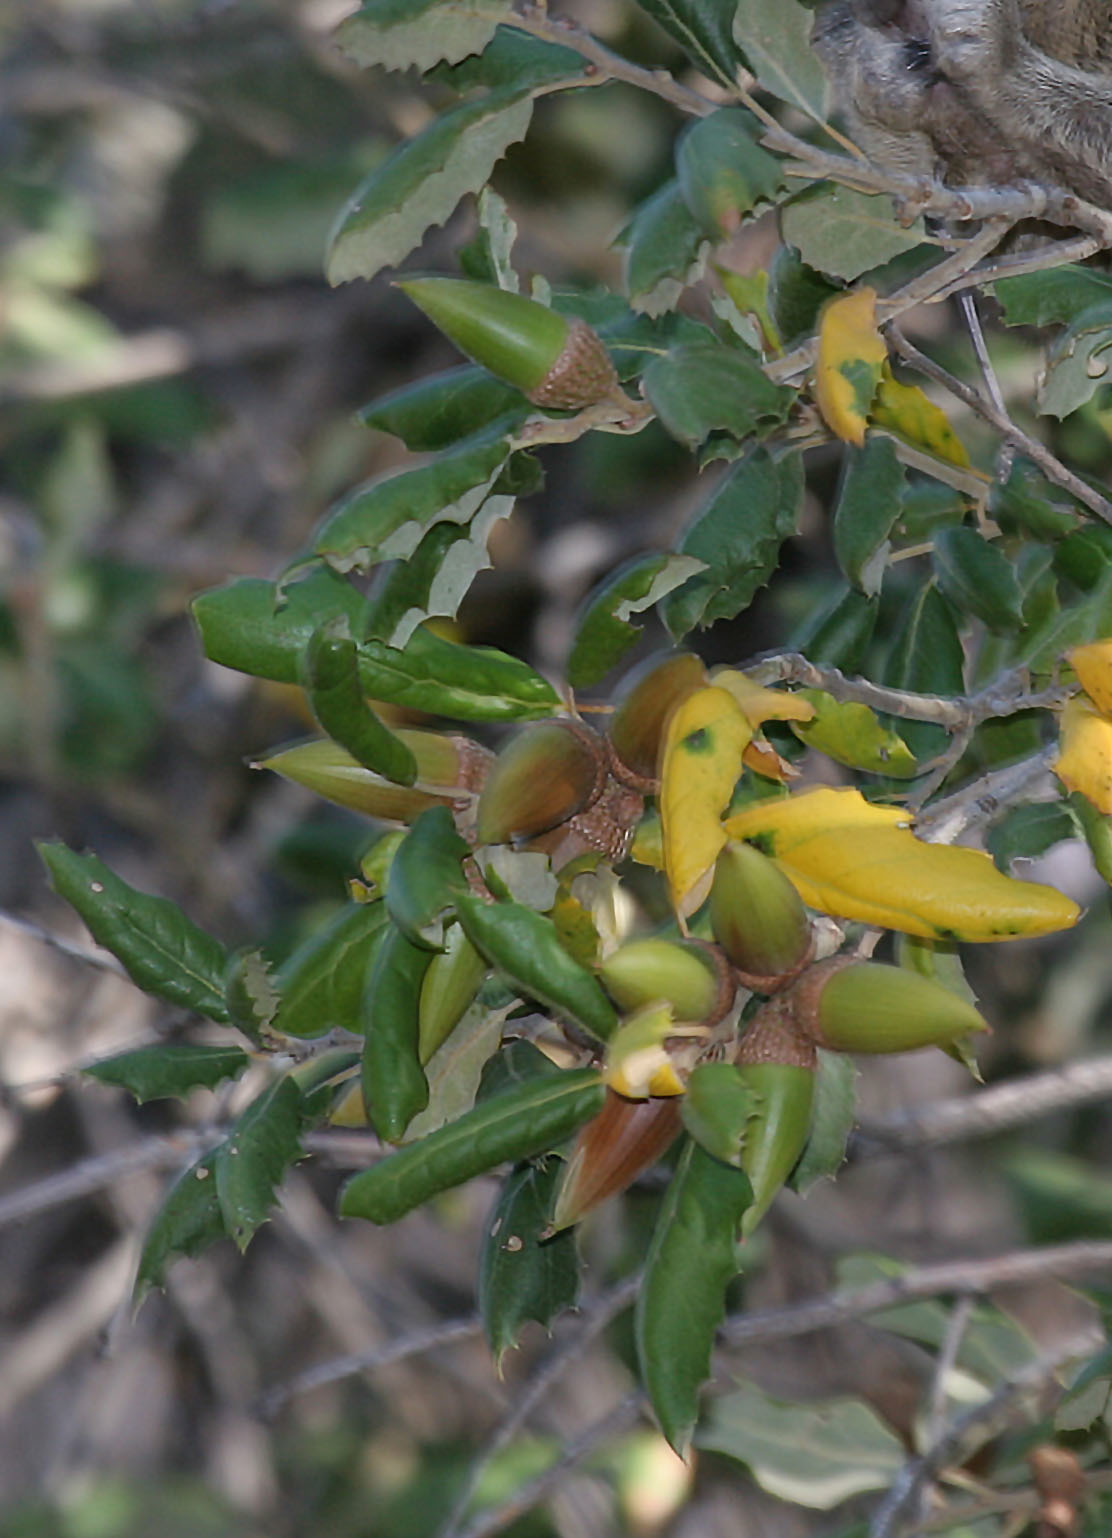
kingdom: Plantae
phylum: Tracheophyta
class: Magnoliopsida
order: Fagales
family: Fagaceae
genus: Quercus
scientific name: Quercus agrifolia
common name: California live oak
